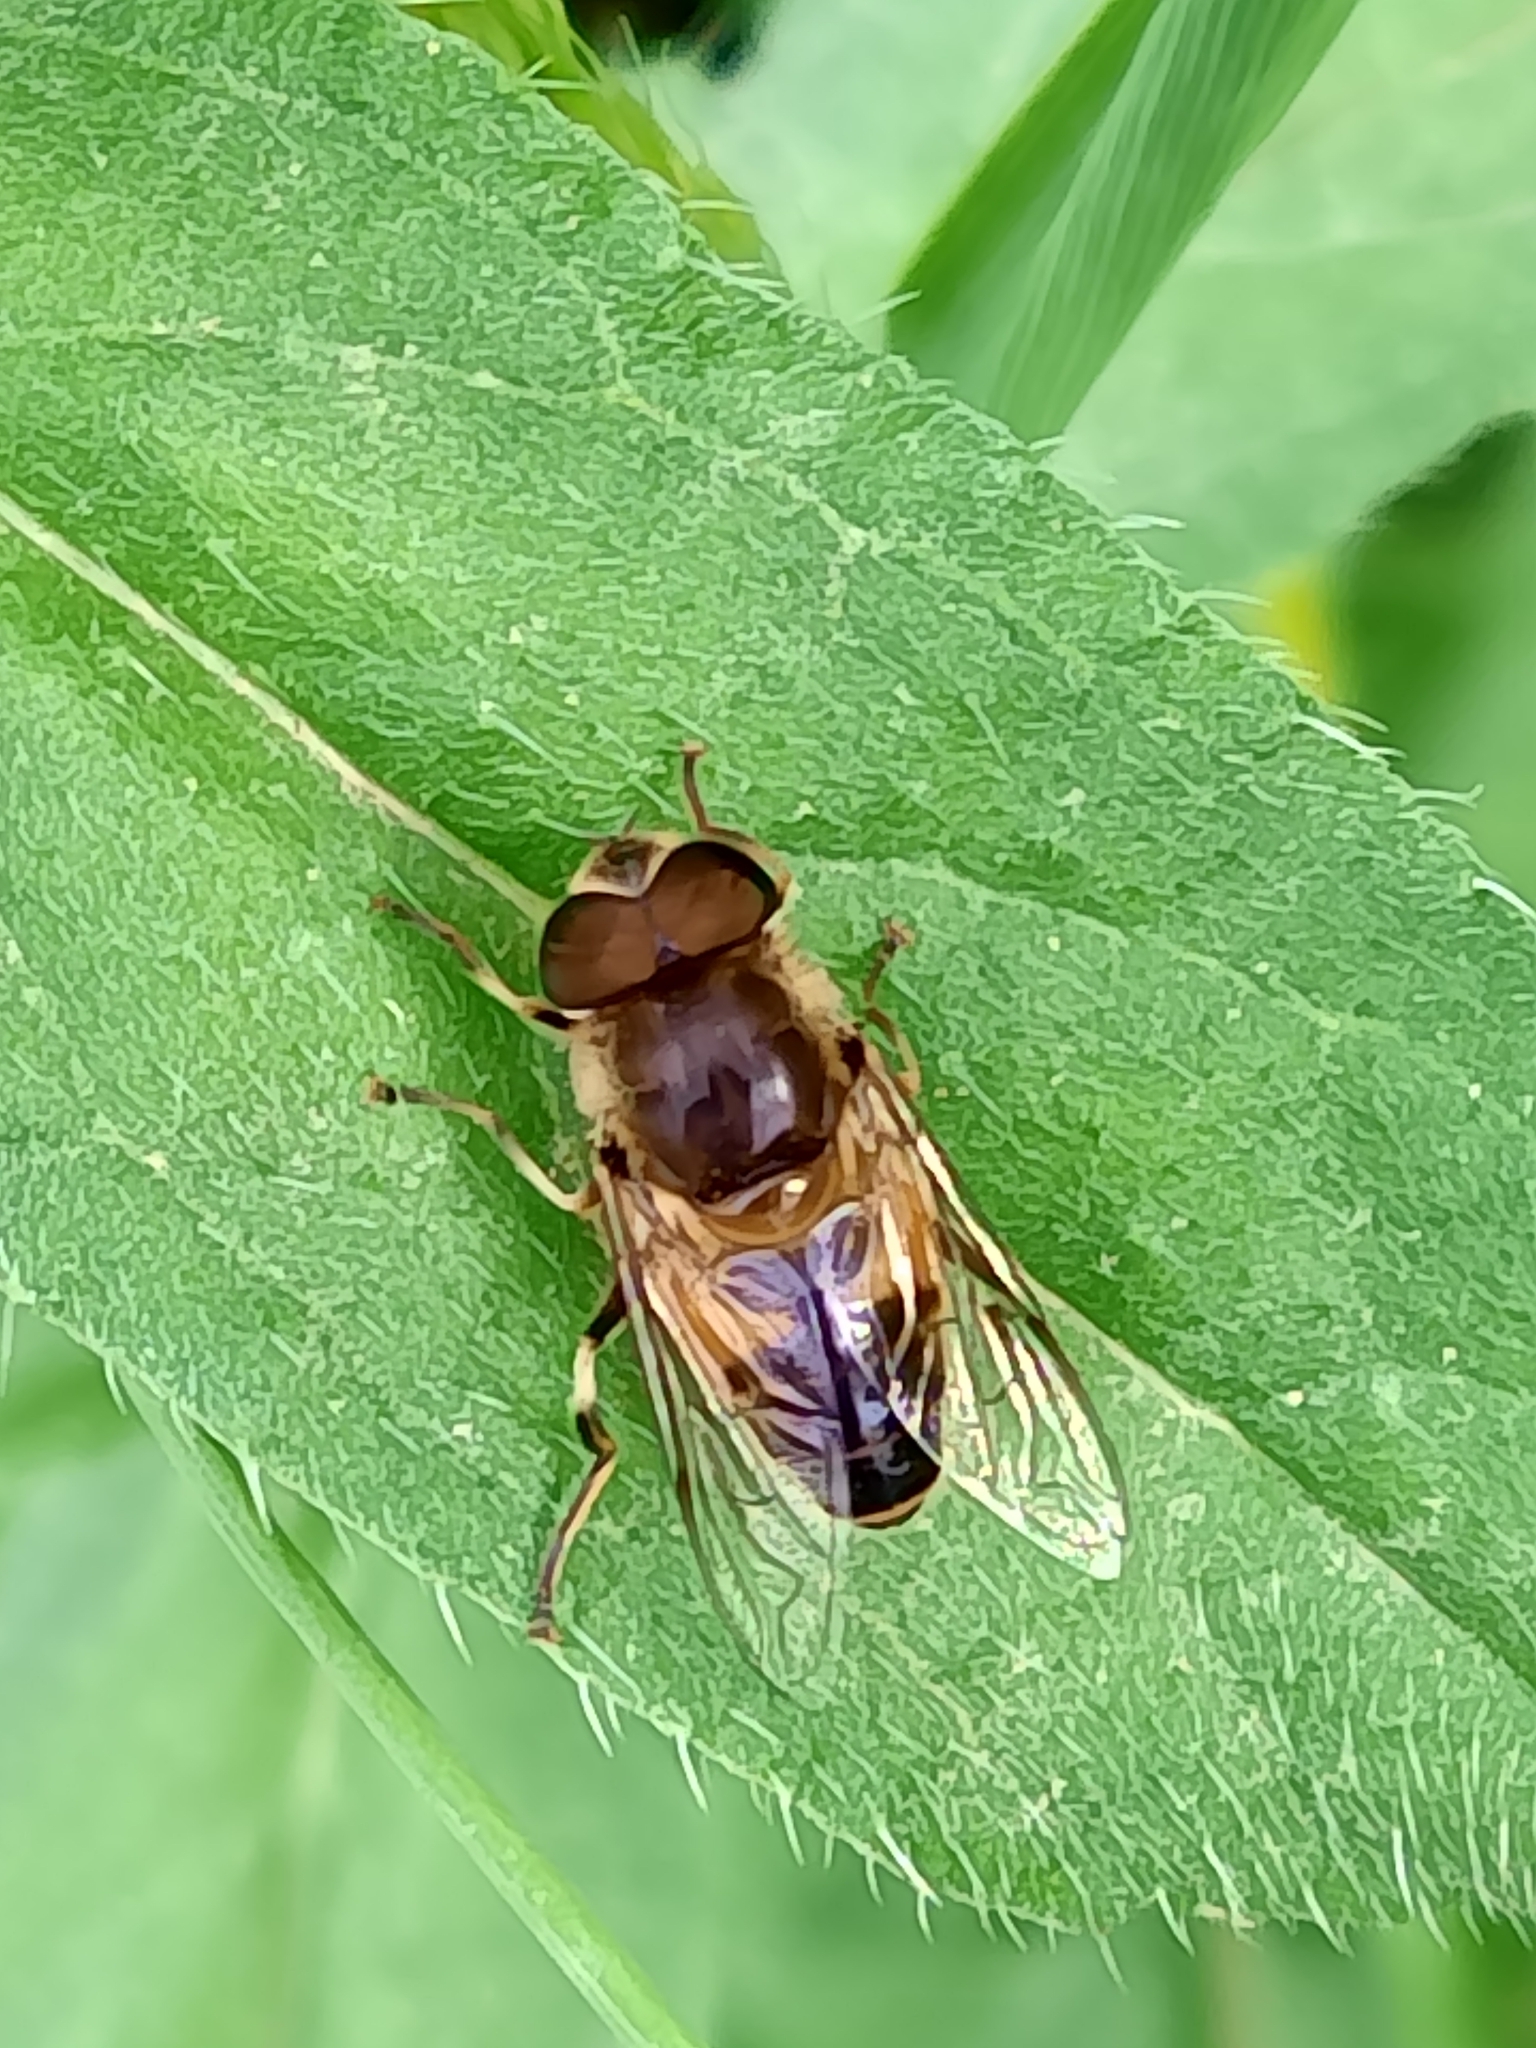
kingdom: Animalia
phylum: Arthropoda
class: Insecta
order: Diptera
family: Syrphidae
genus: Eristalis
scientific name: Eristalis pertinax
